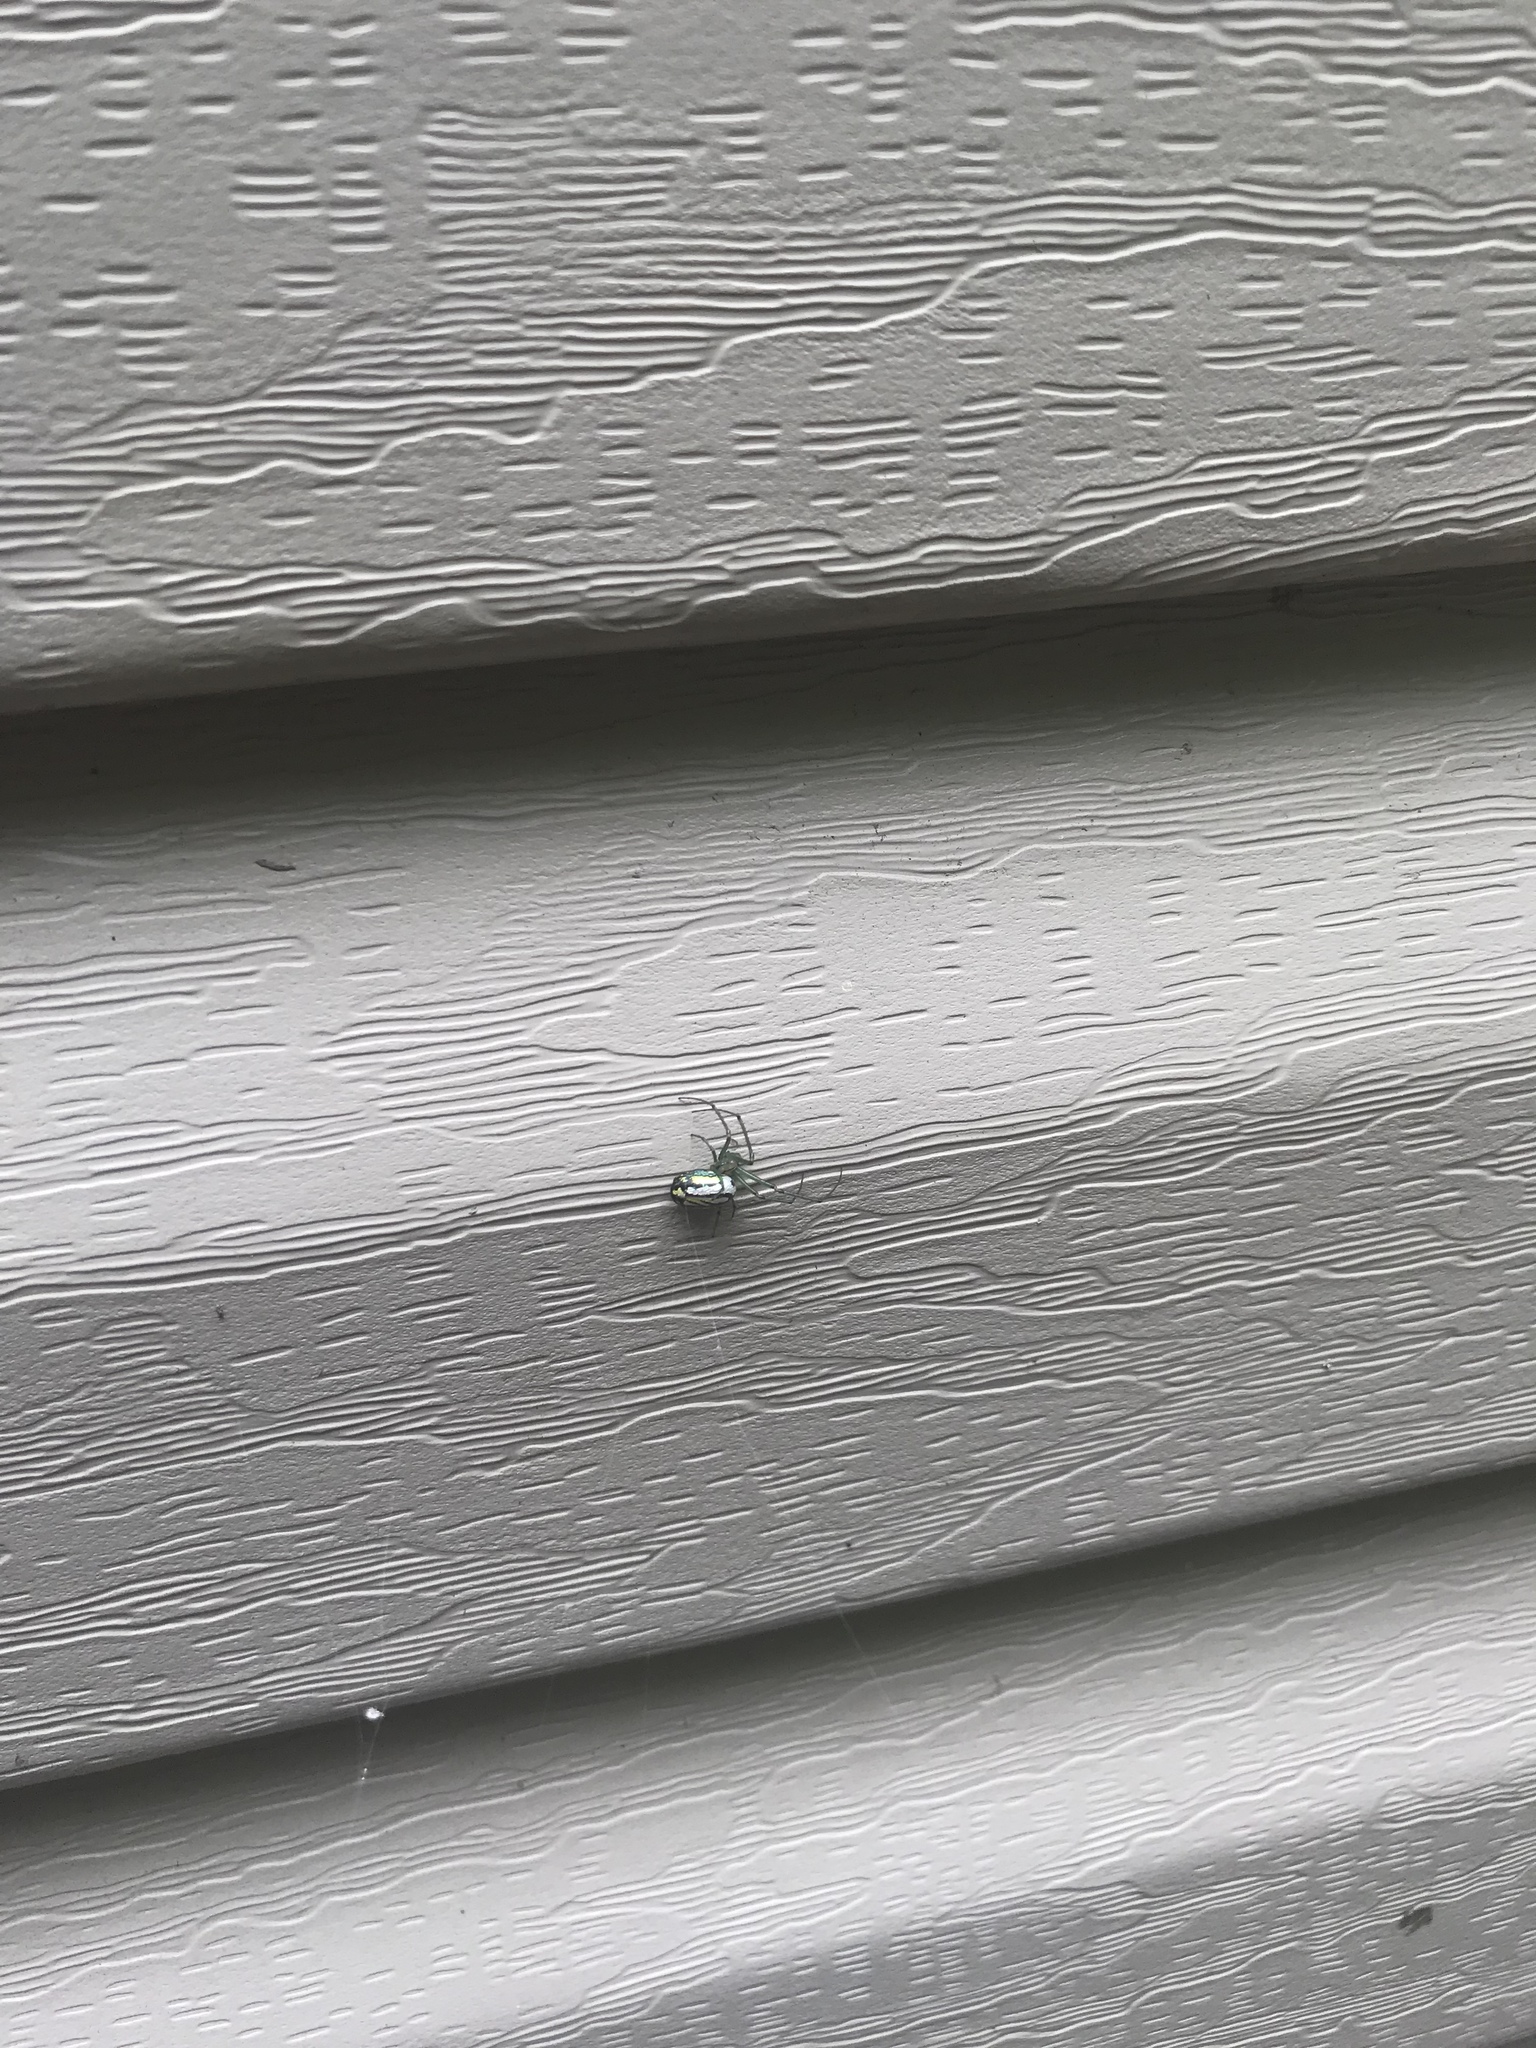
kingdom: Animalia
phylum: Arthropoda
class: Arachnida
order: Araneae
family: Tetragnathidae
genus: Leucauge
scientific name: Leucauge venusta
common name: Longjawed orb weavers
